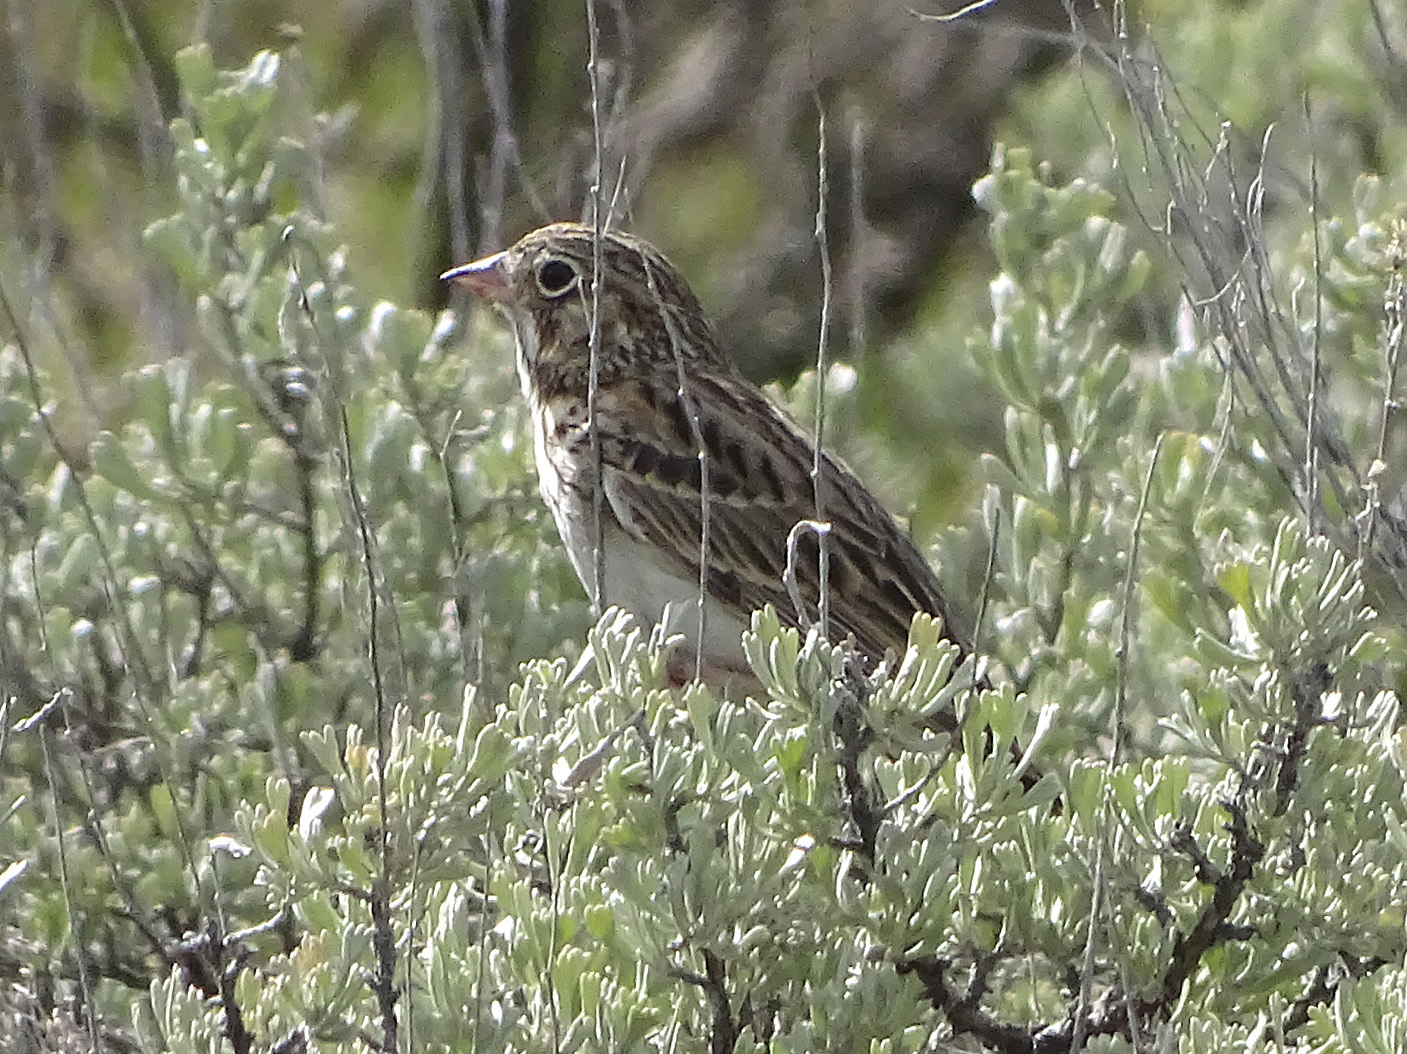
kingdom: Animalia
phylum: Chordata
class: Aves
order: Passeriformes
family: Passerellidae
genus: Pooecetes
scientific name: Pooecetes gramineus
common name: Vesper sparrow
